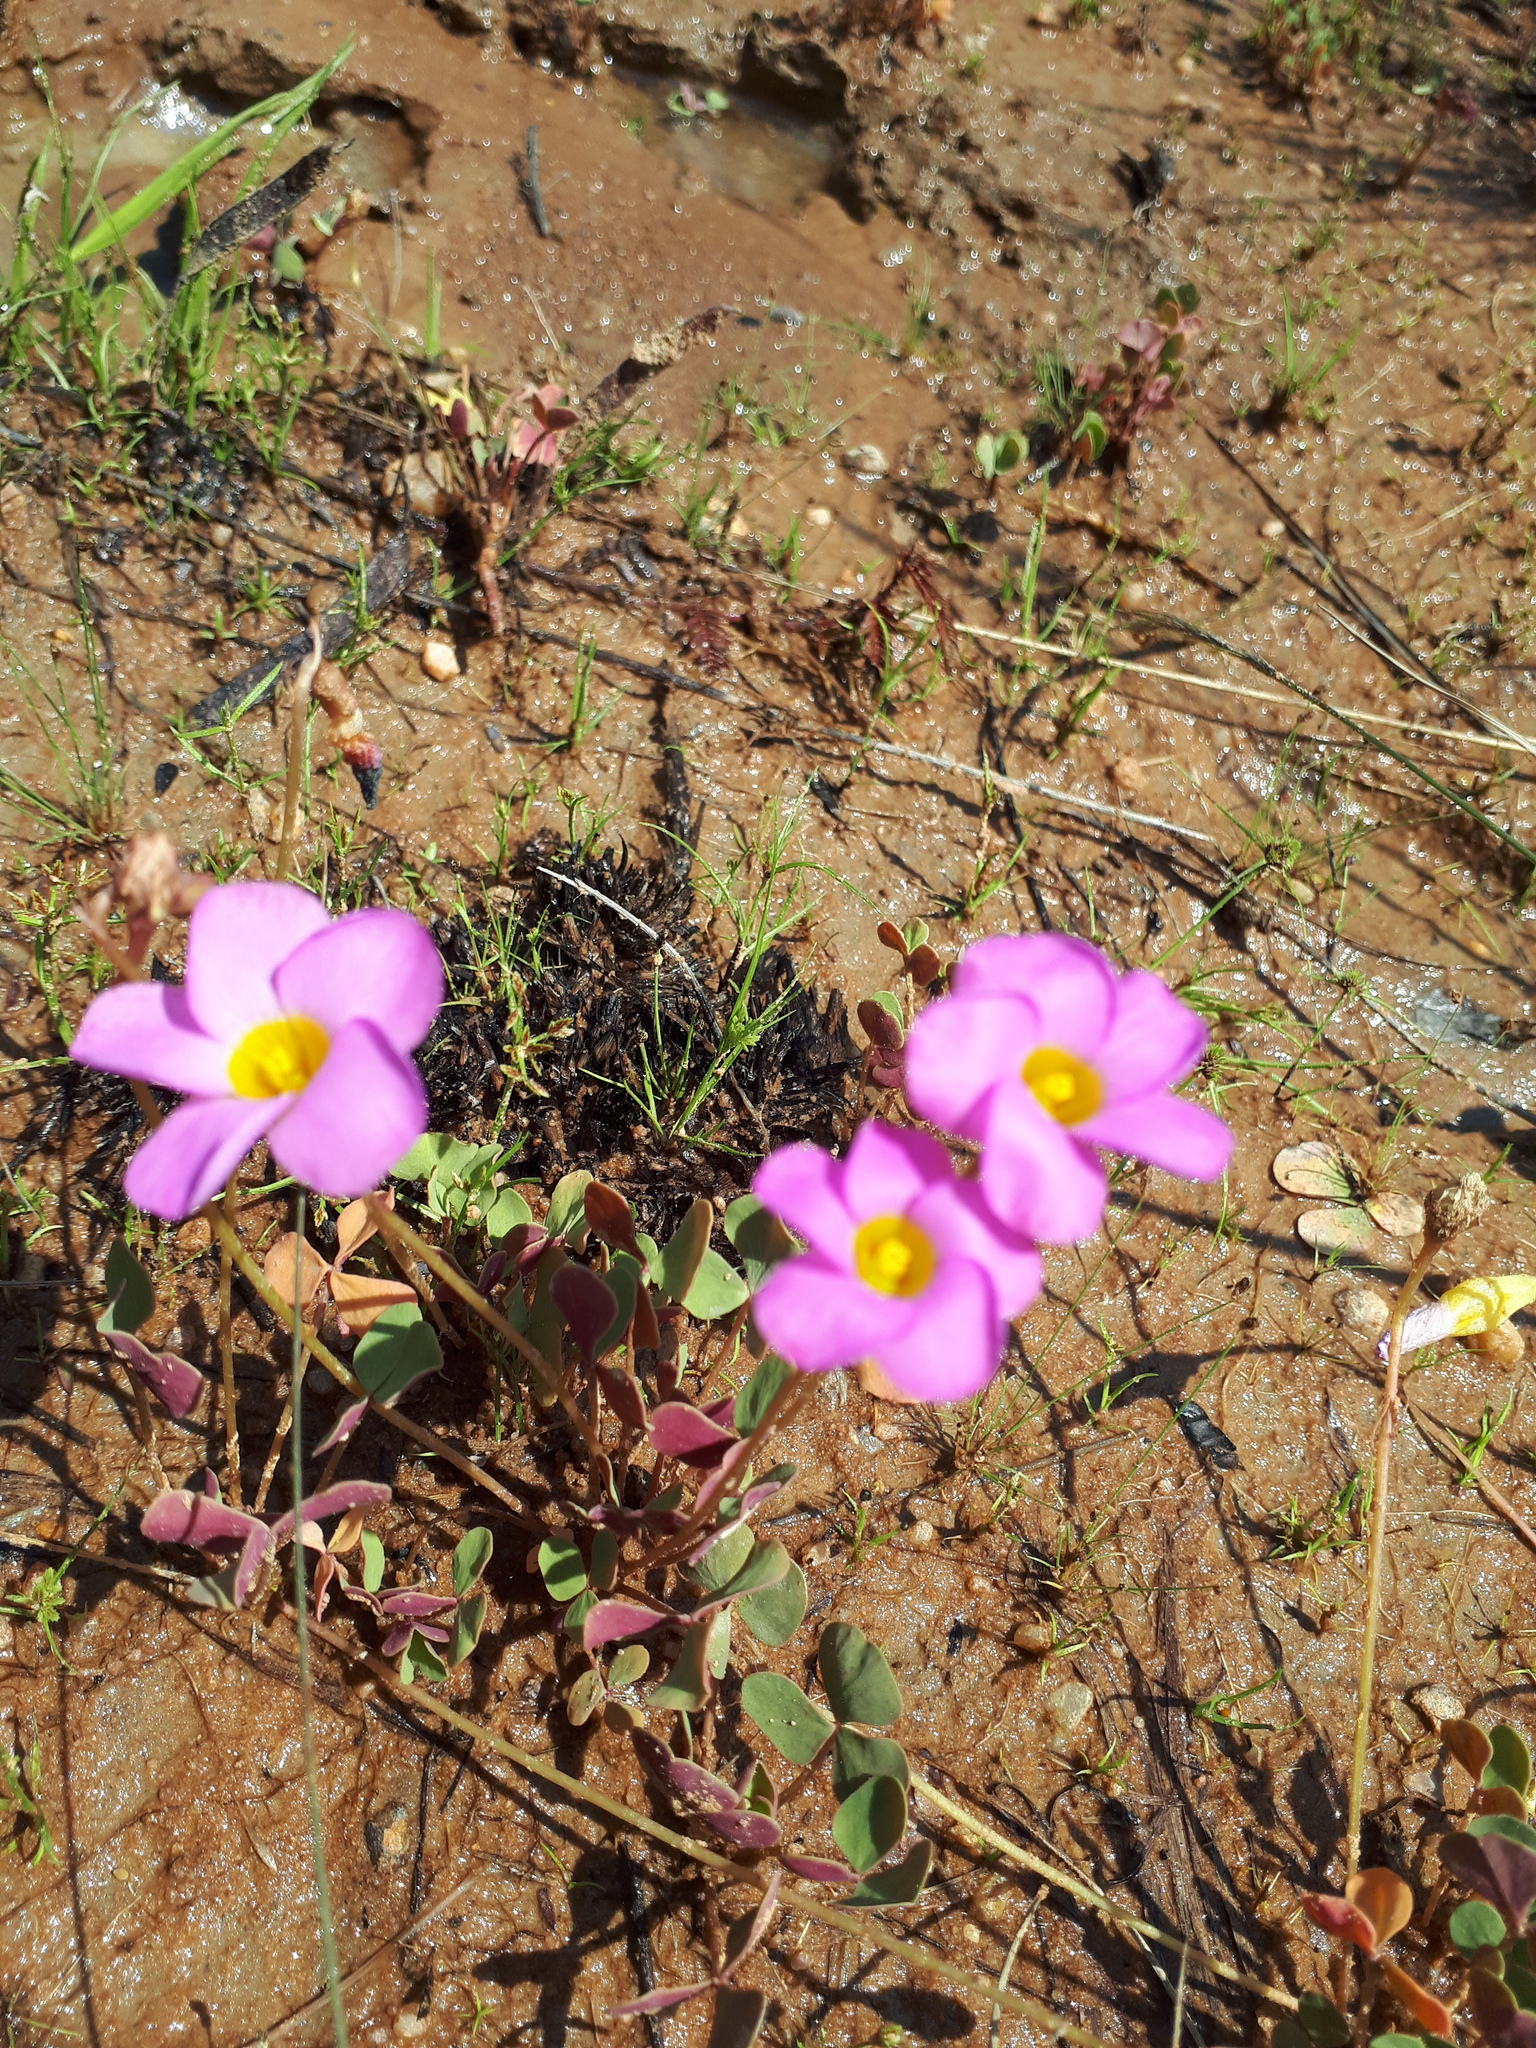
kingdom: Plantae
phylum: Tracheophyta
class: Magnoliopsida
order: Oxalidales
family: Oxalidaceae
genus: Oxalis
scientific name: Oxalis obliquifolia
